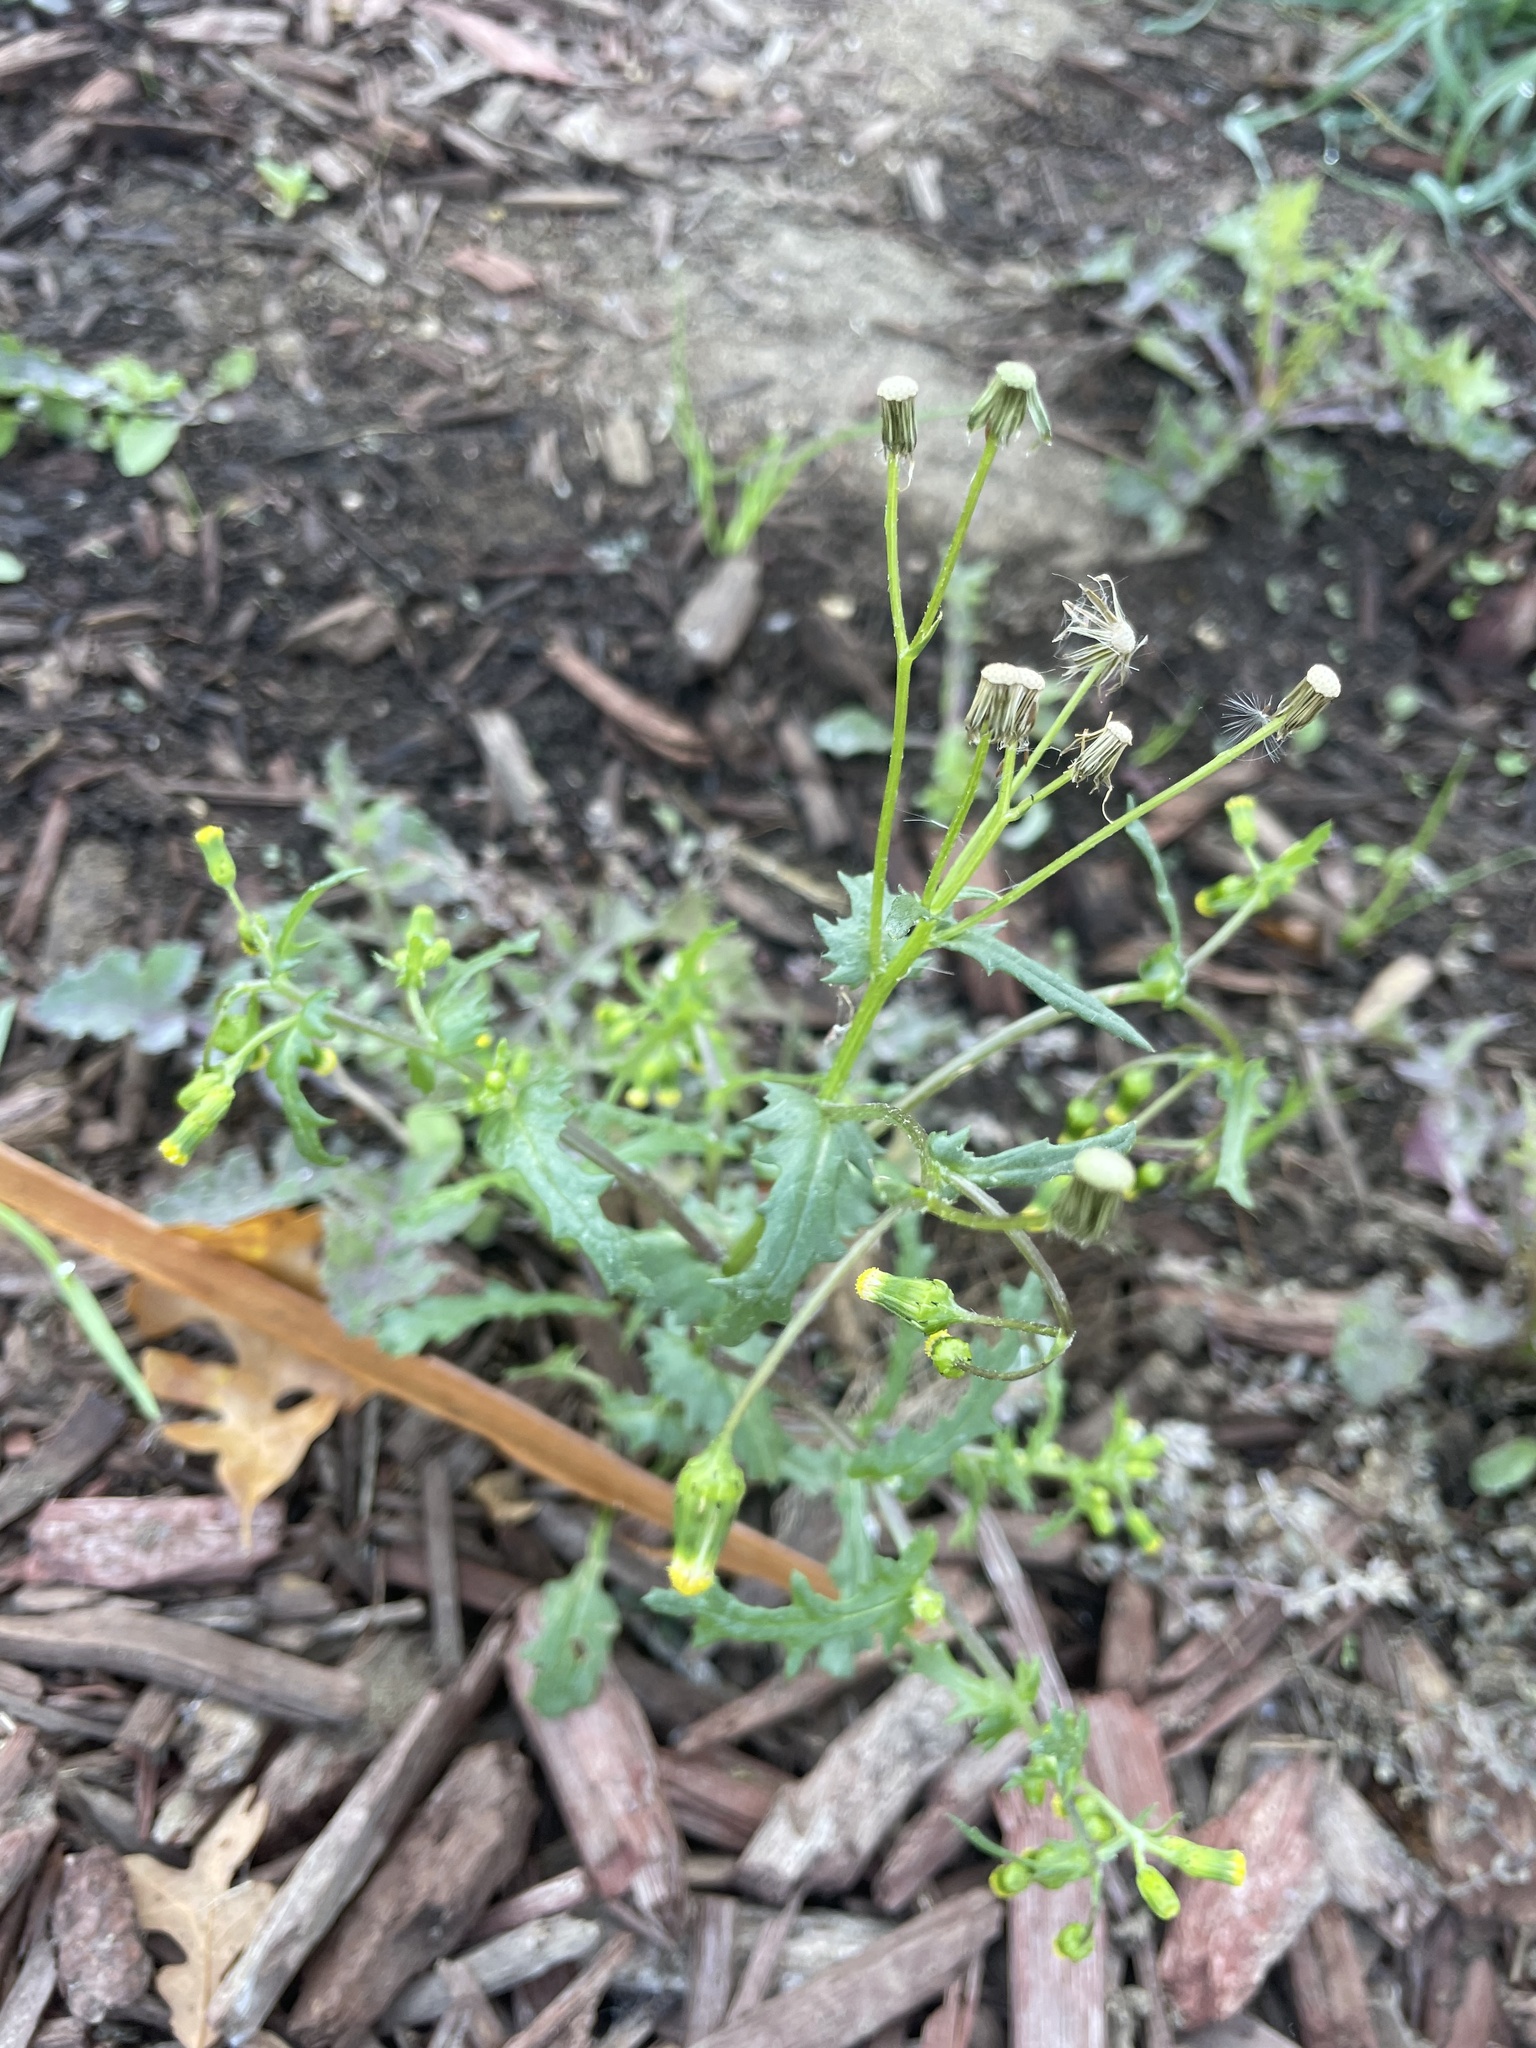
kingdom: Plantae
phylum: Tracheophyta
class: Magnoliopsida
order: Asterales
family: Asteraceae
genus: Senecio
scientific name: Senecio vulgaris
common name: Old-man-in-the-spring
